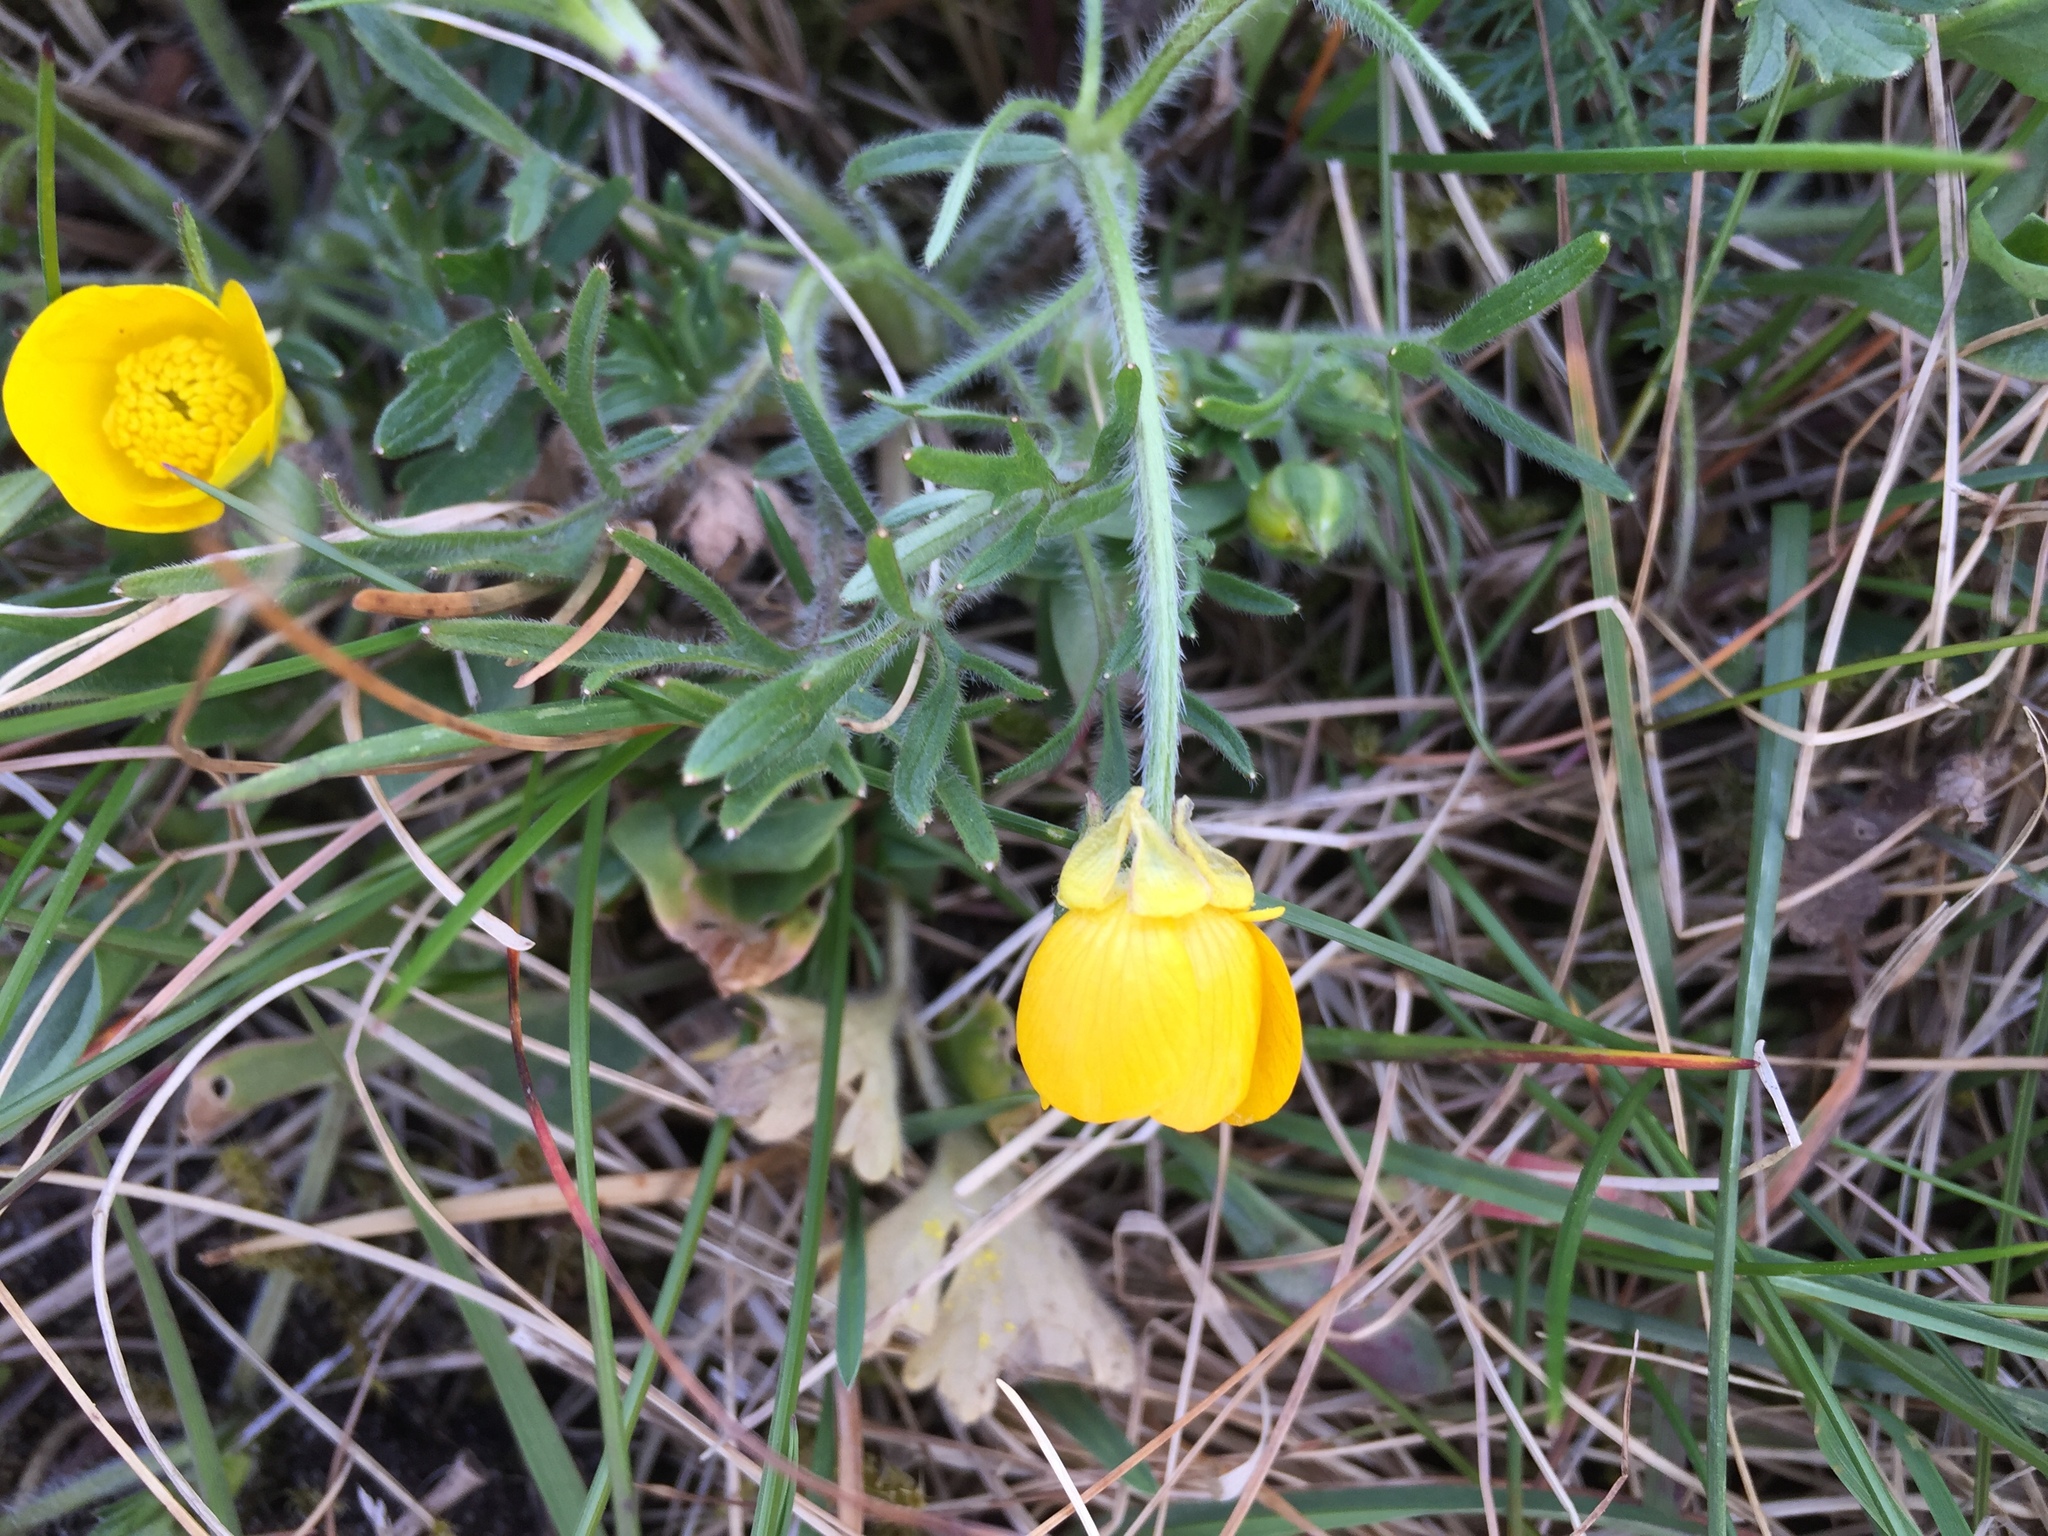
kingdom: Plantae
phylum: Tracheophyta
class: Magnoliopsida
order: Ranunculales
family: Ranunculaceae
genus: Ranunculus
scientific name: Ranunculus bulbosus
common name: Bulbous buttercup
